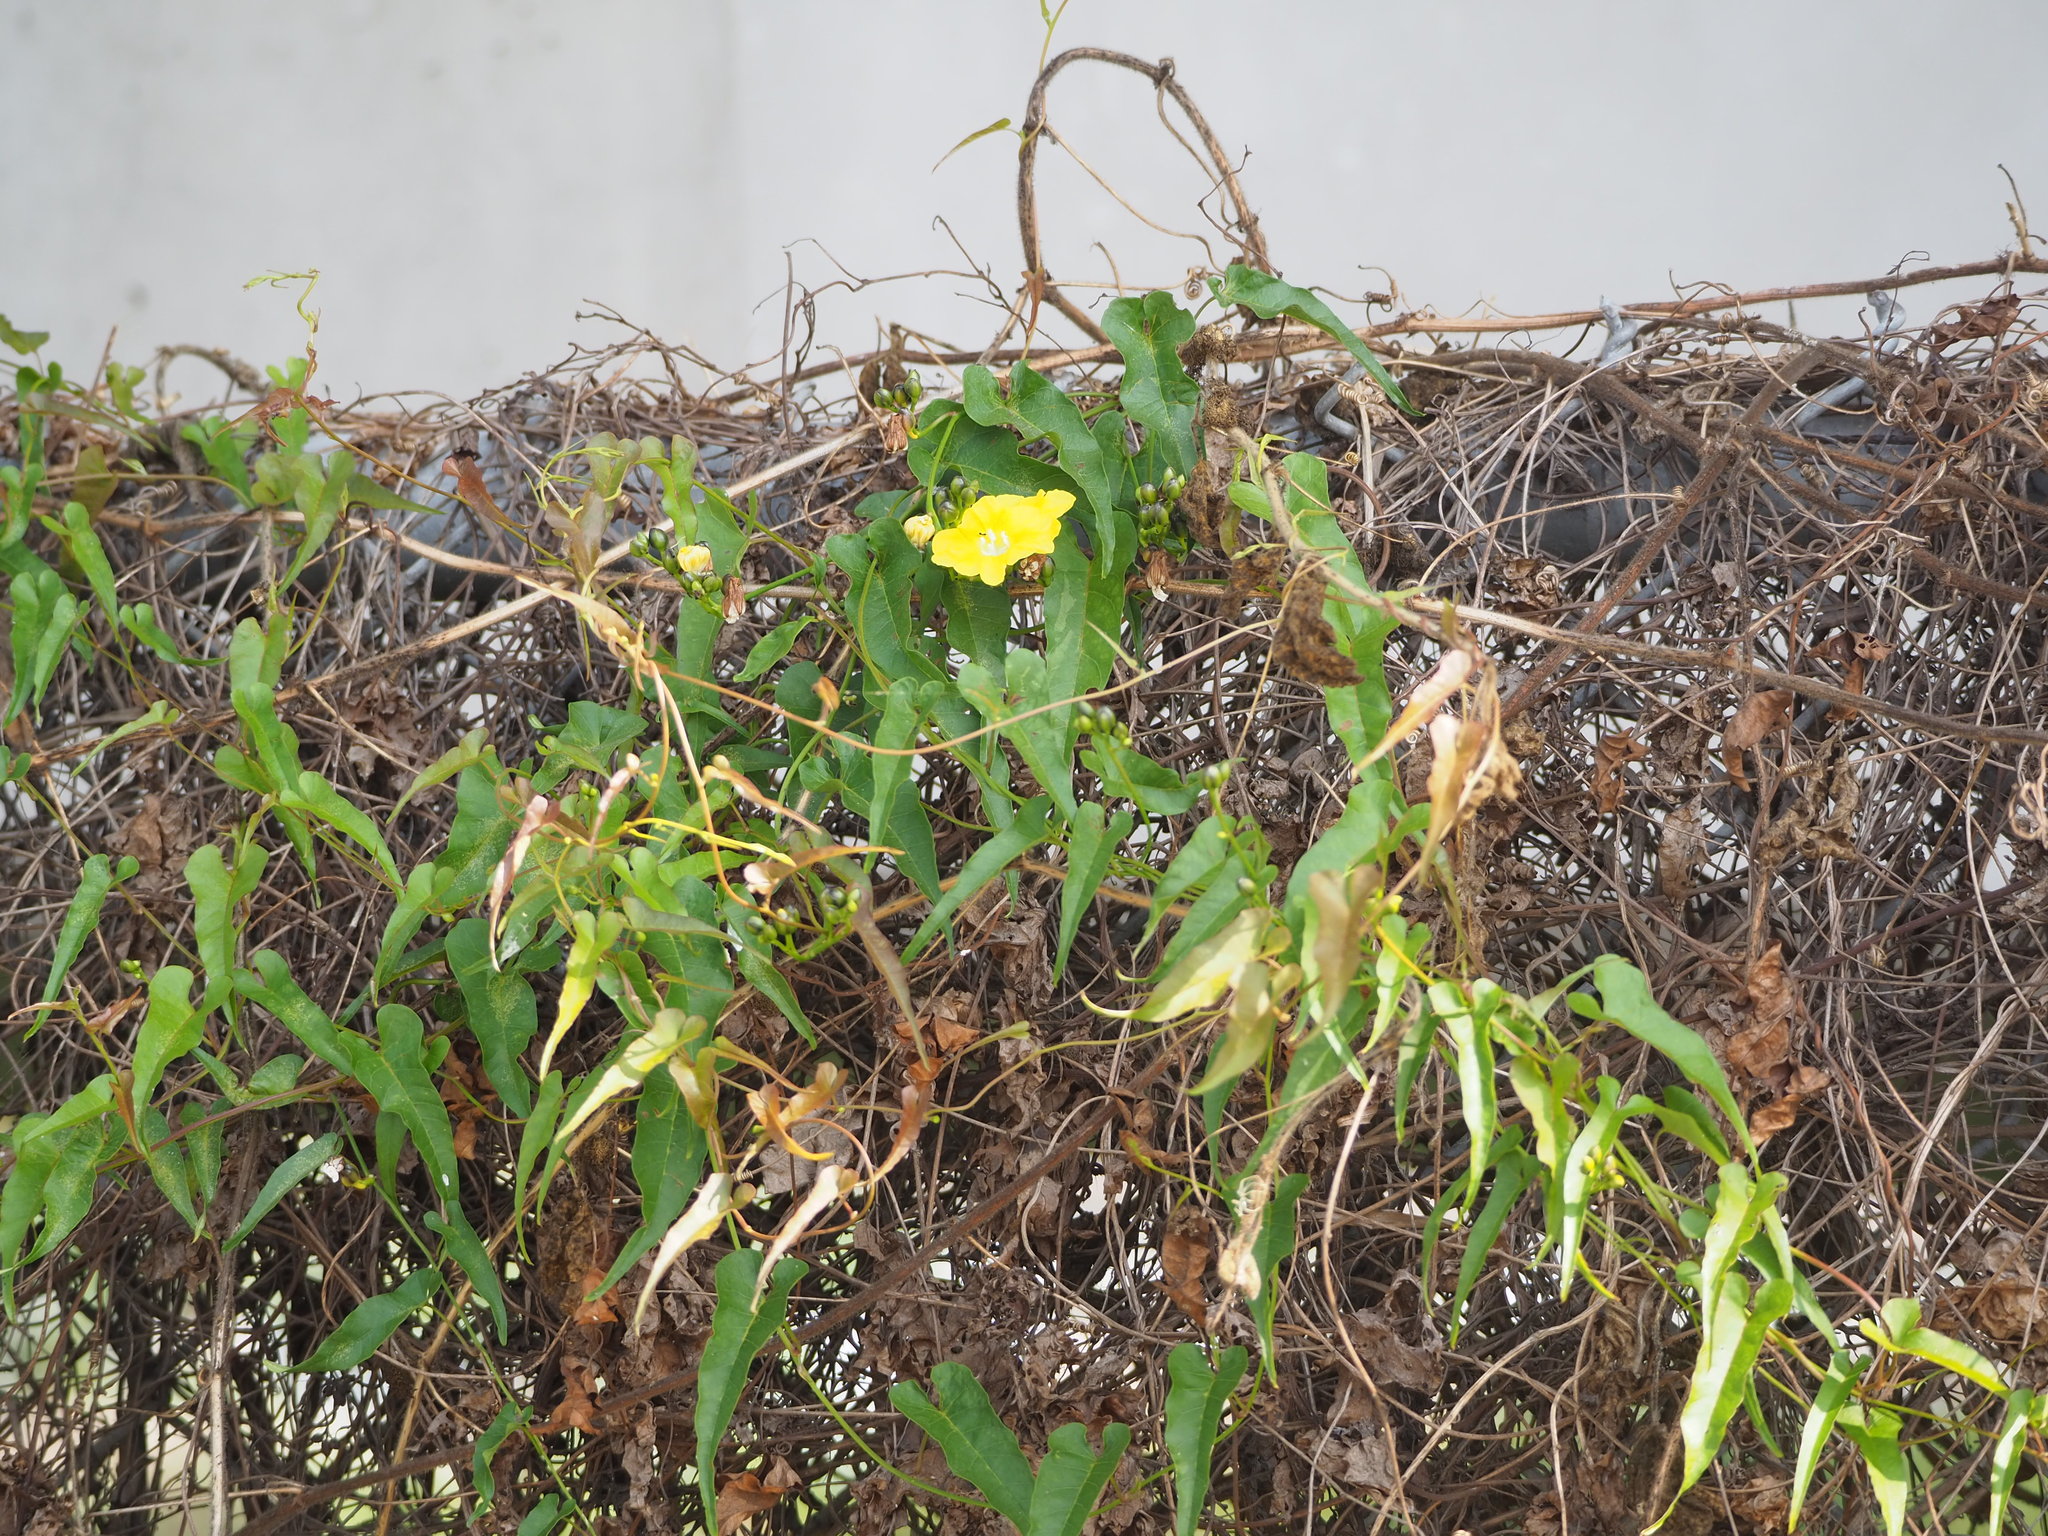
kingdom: Plantae
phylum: Tracheophyta
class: Magnoliopsida
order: Solanales
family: Convolvulaceae
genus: Merremia
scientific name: Merremia gemella
